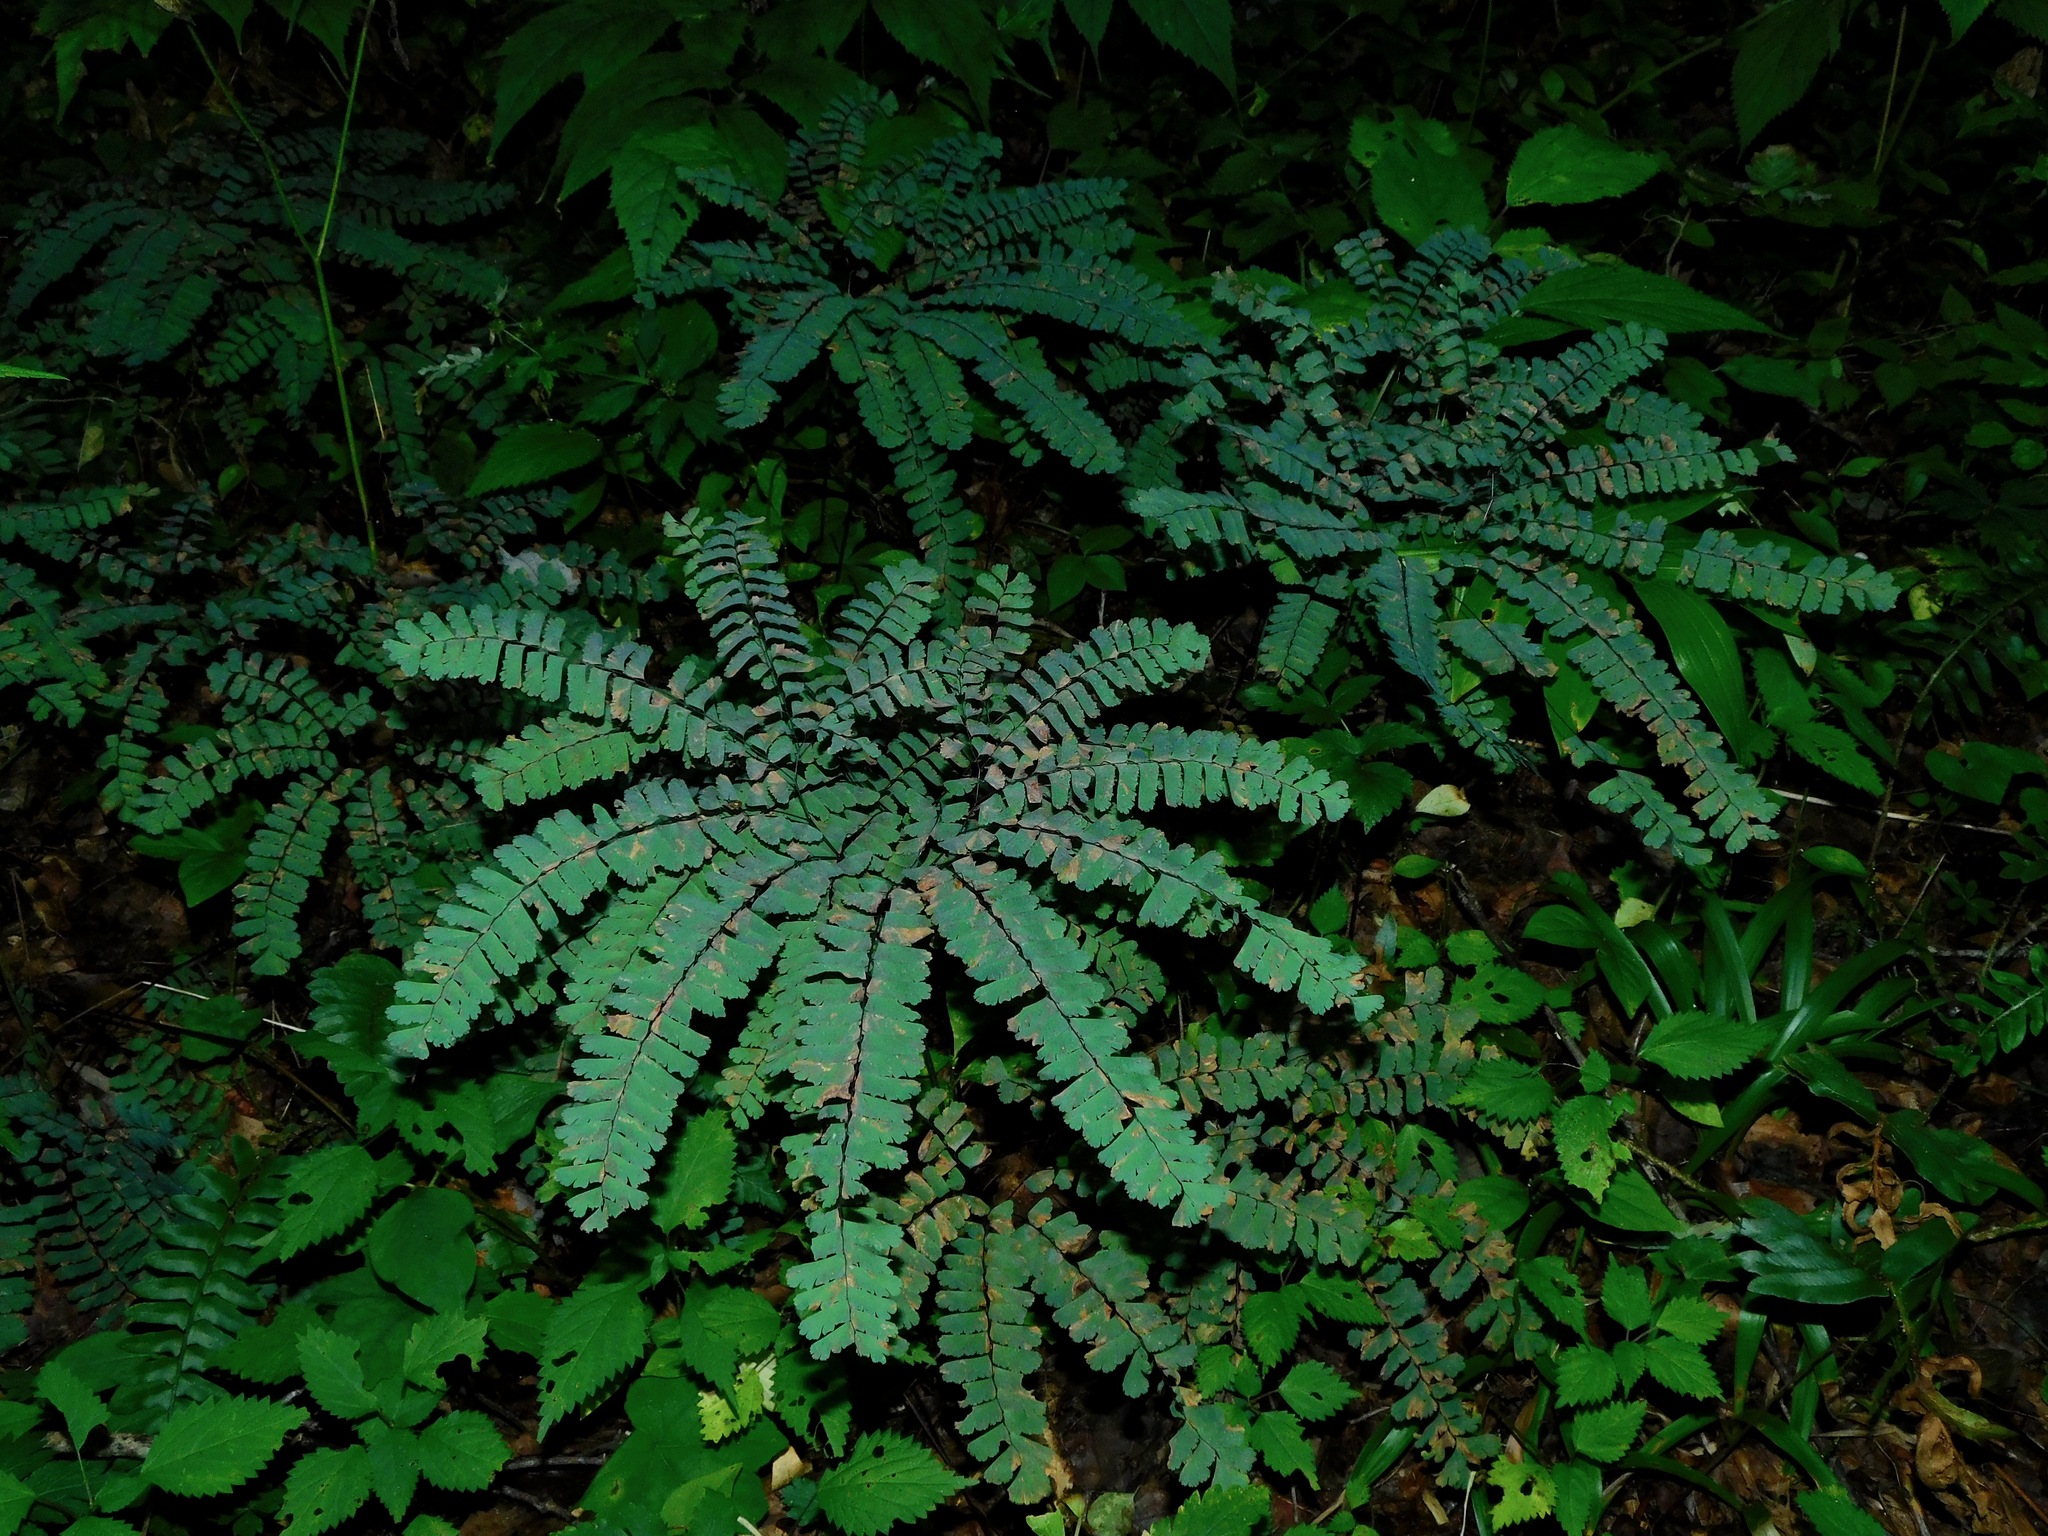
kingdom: Plantae
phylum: Tracheophyta
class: Polypodiopsida
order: Polypodiales
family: Pteridaceae
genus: Adiantum
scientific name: Adiantum pedatum
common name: Five-finger fern
